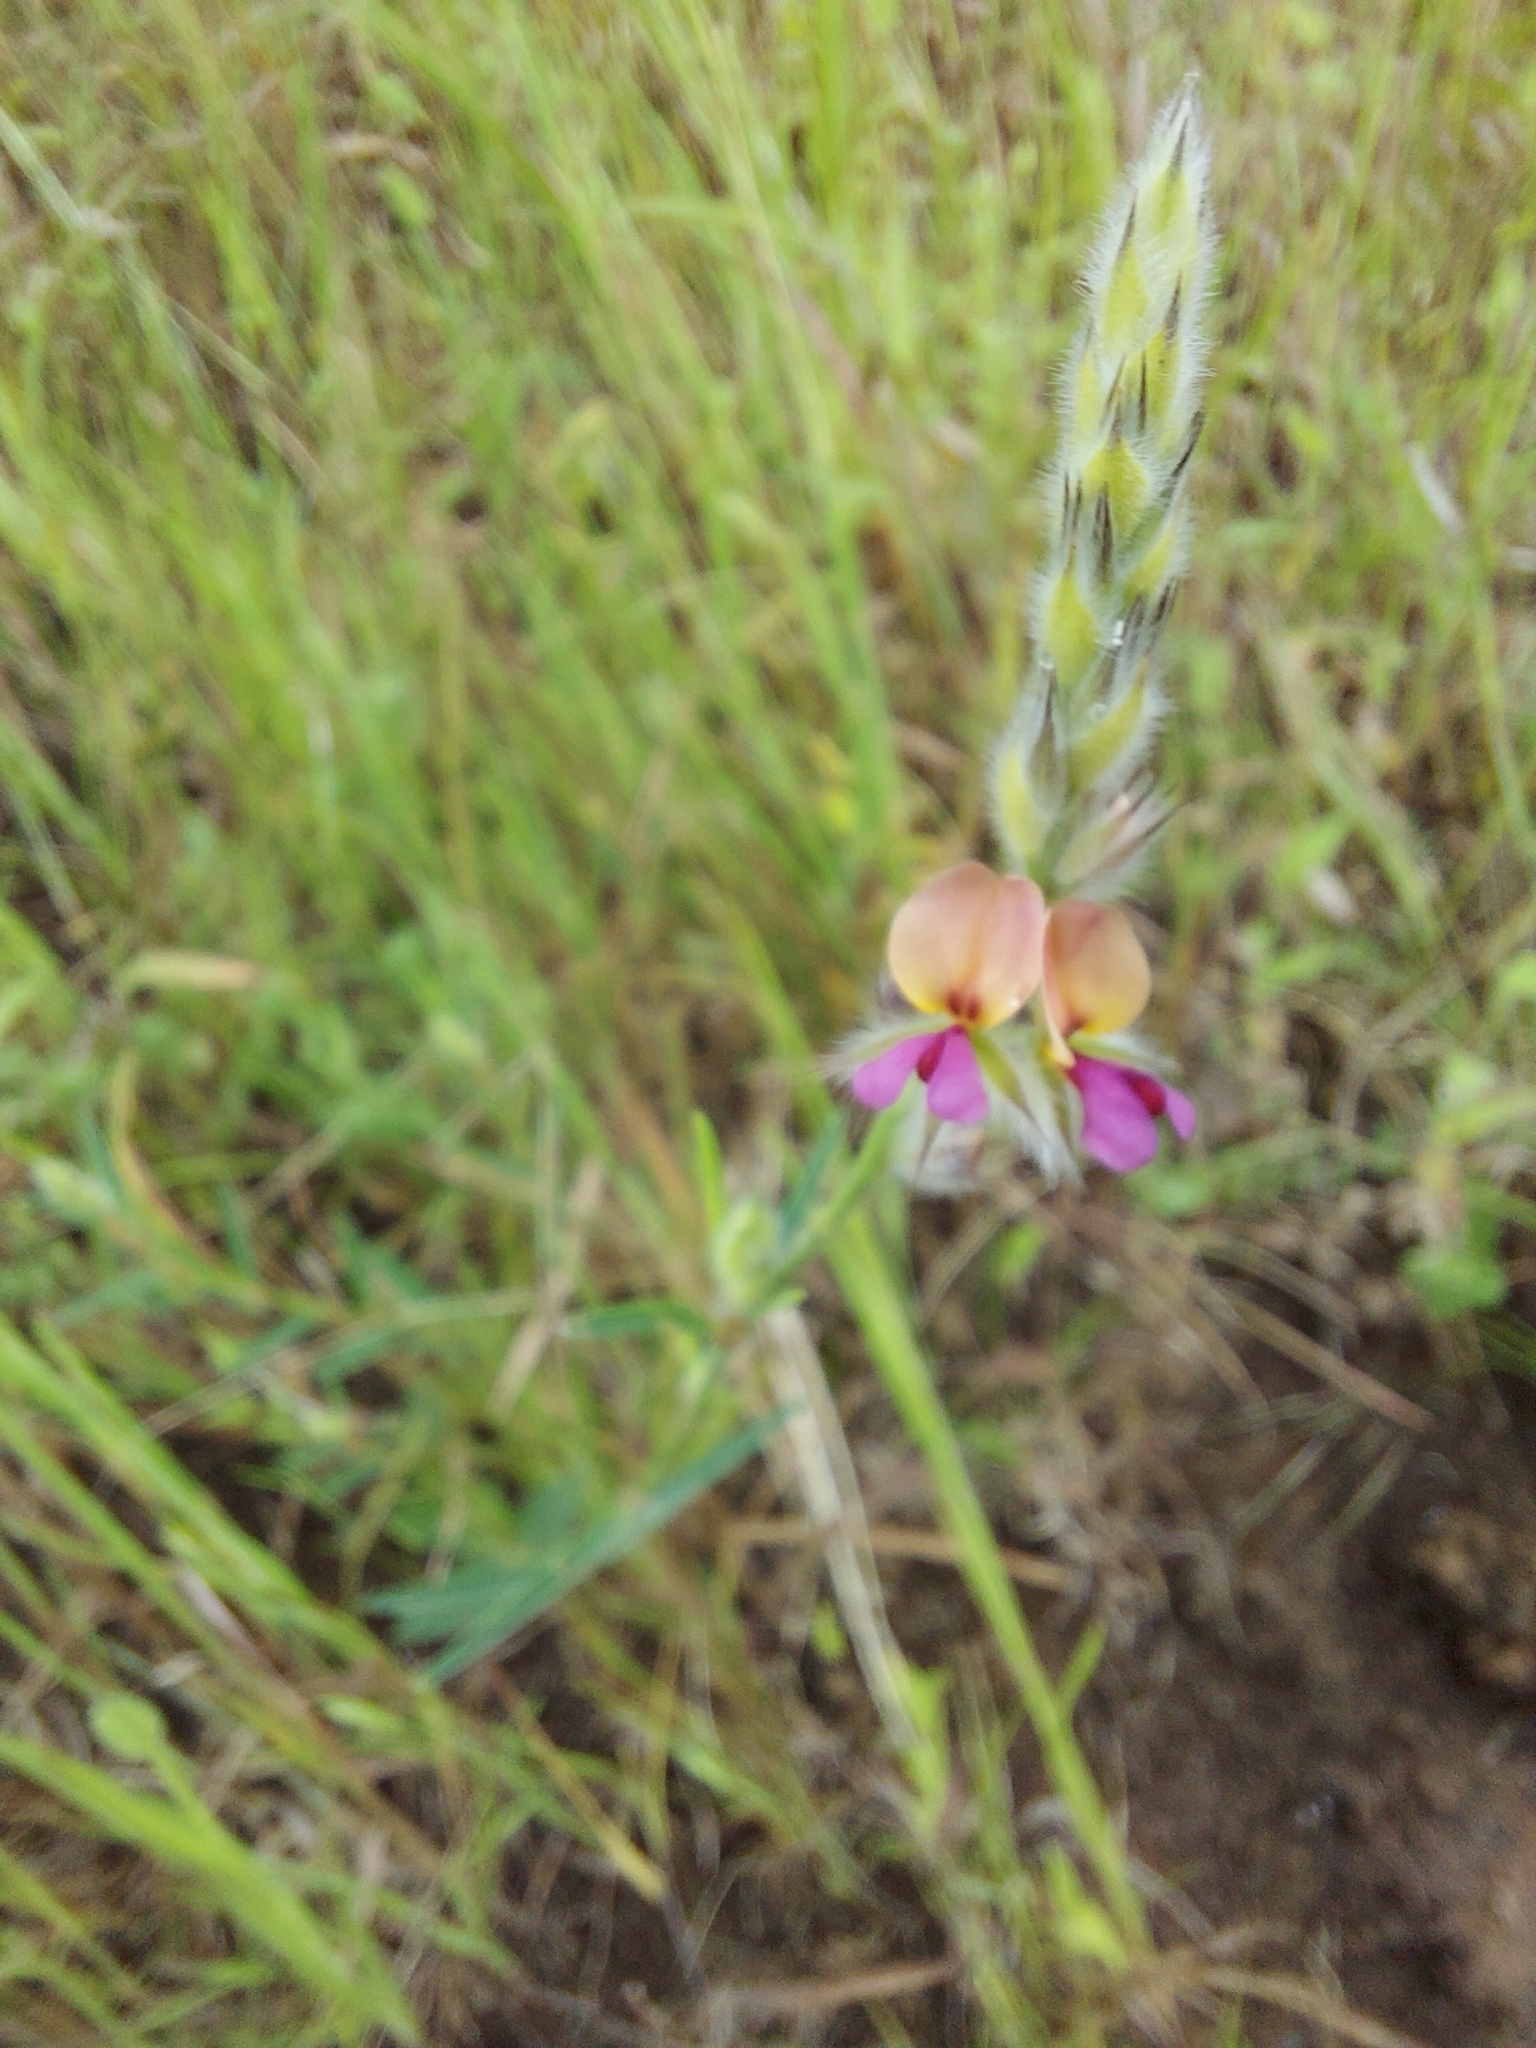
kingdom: Plantae
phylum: Tracheophyta
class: Magnoliopsida
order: Fabales
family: Fabaceae
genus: Alysicarpus
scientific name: Alysicarpus pubescens
